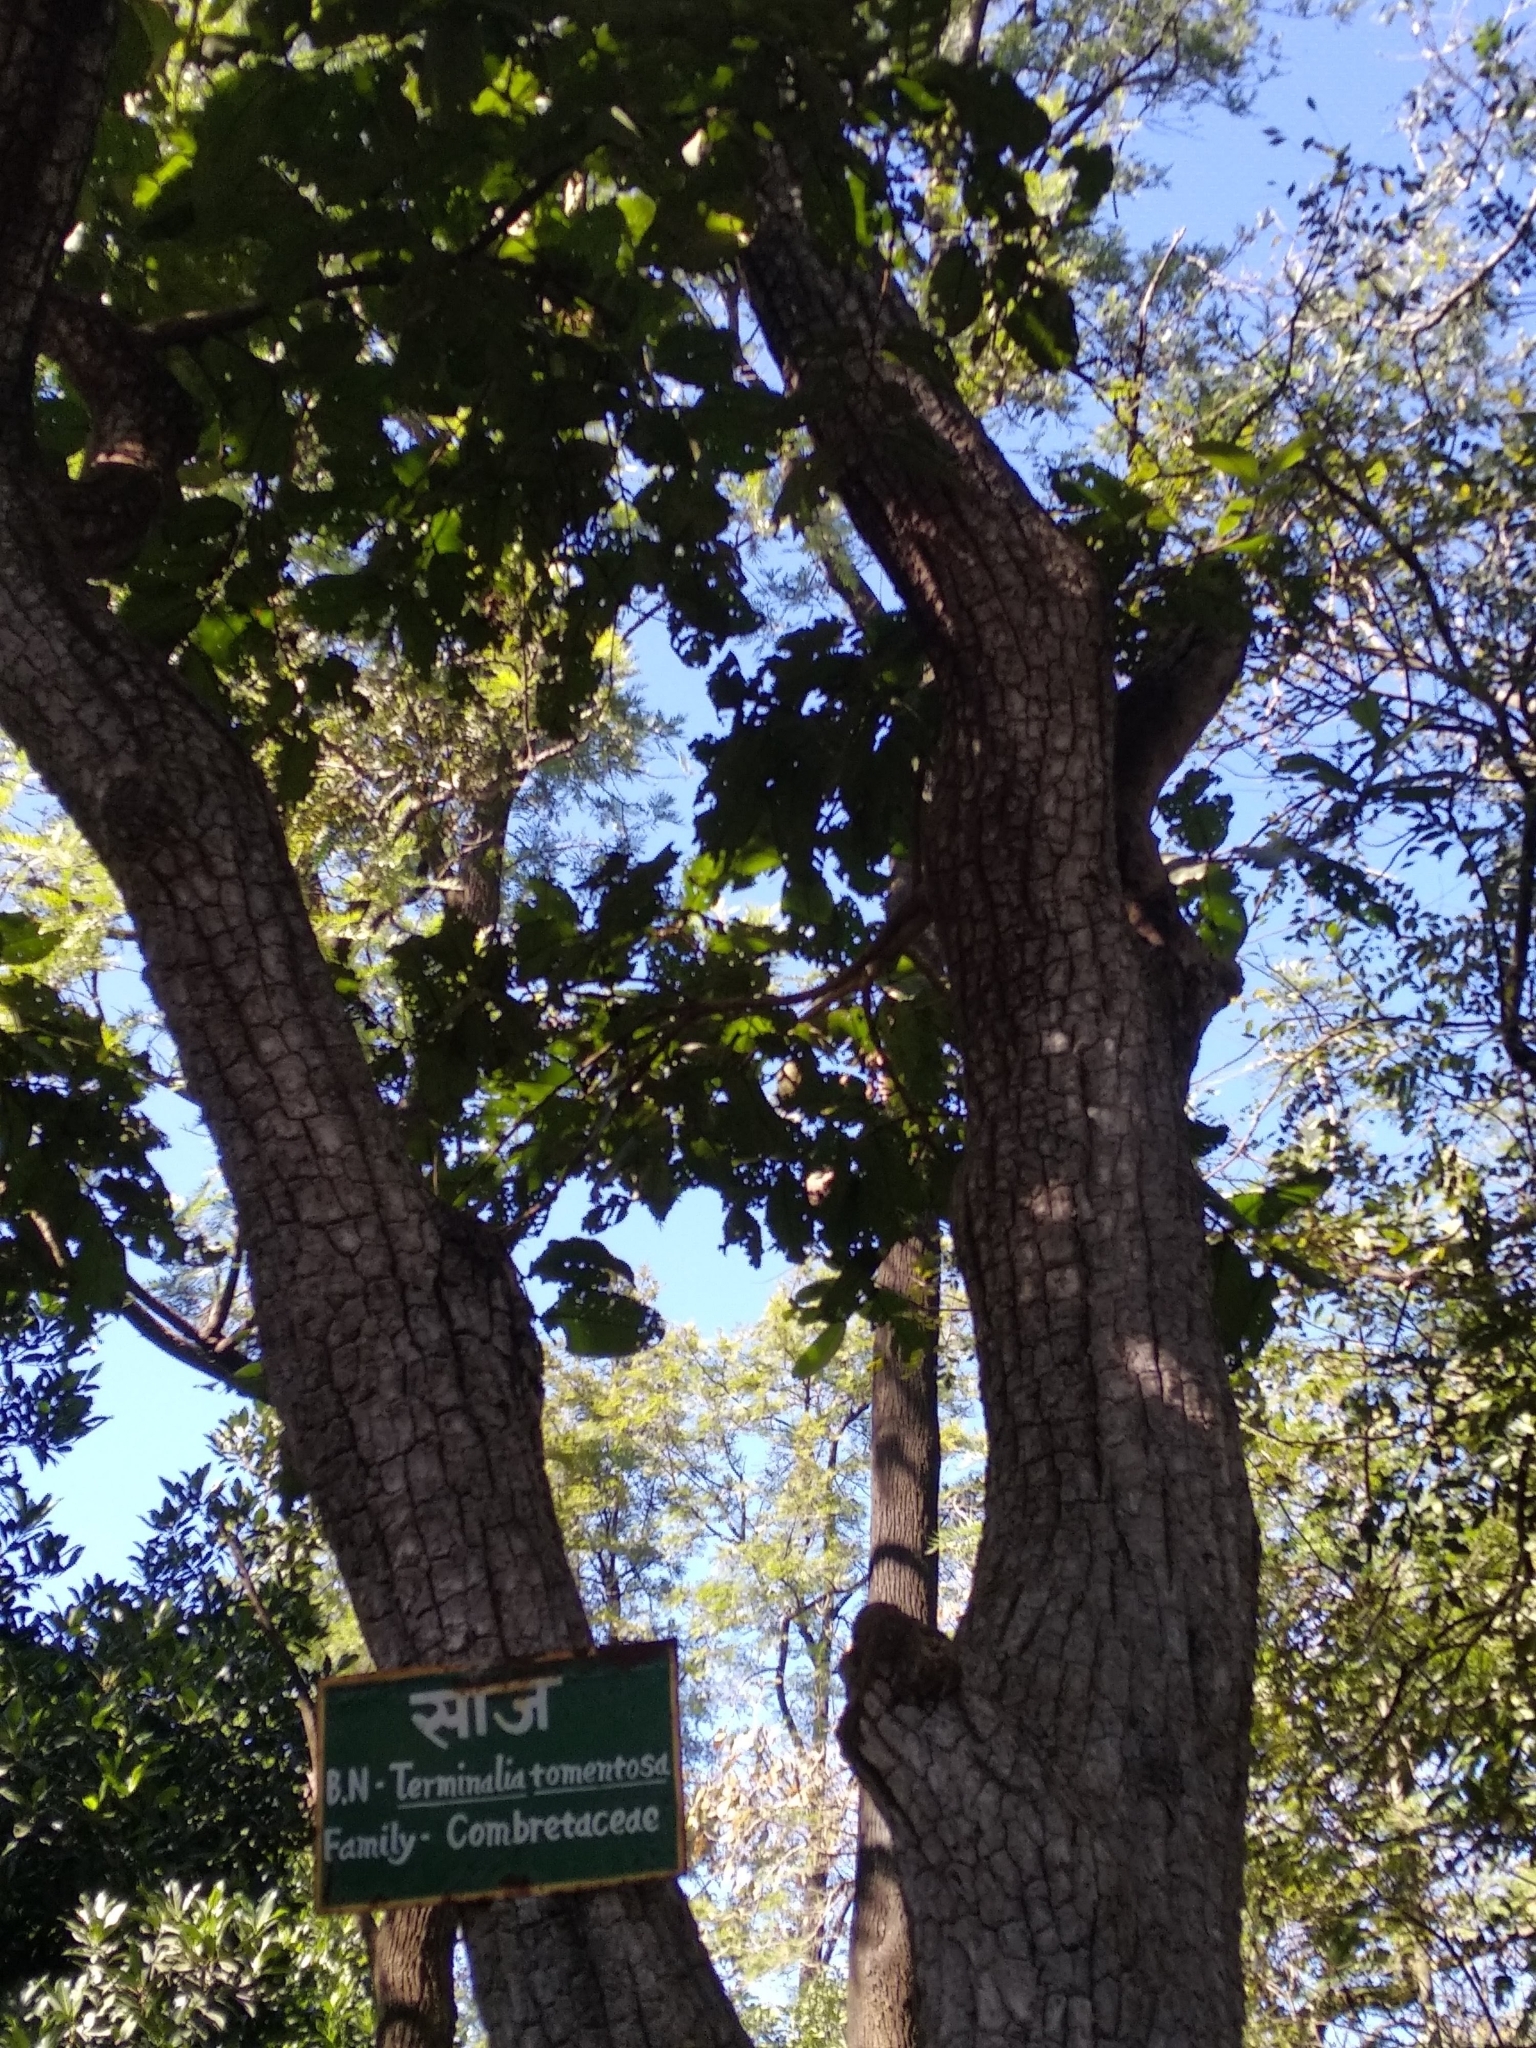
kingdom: Plantae
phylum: Tracheophyta
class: Magnoliopsida
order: Myrtales
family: Combretaceae
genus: Terminalia
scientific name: Terminalia elliptica
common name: Indian-laurel
